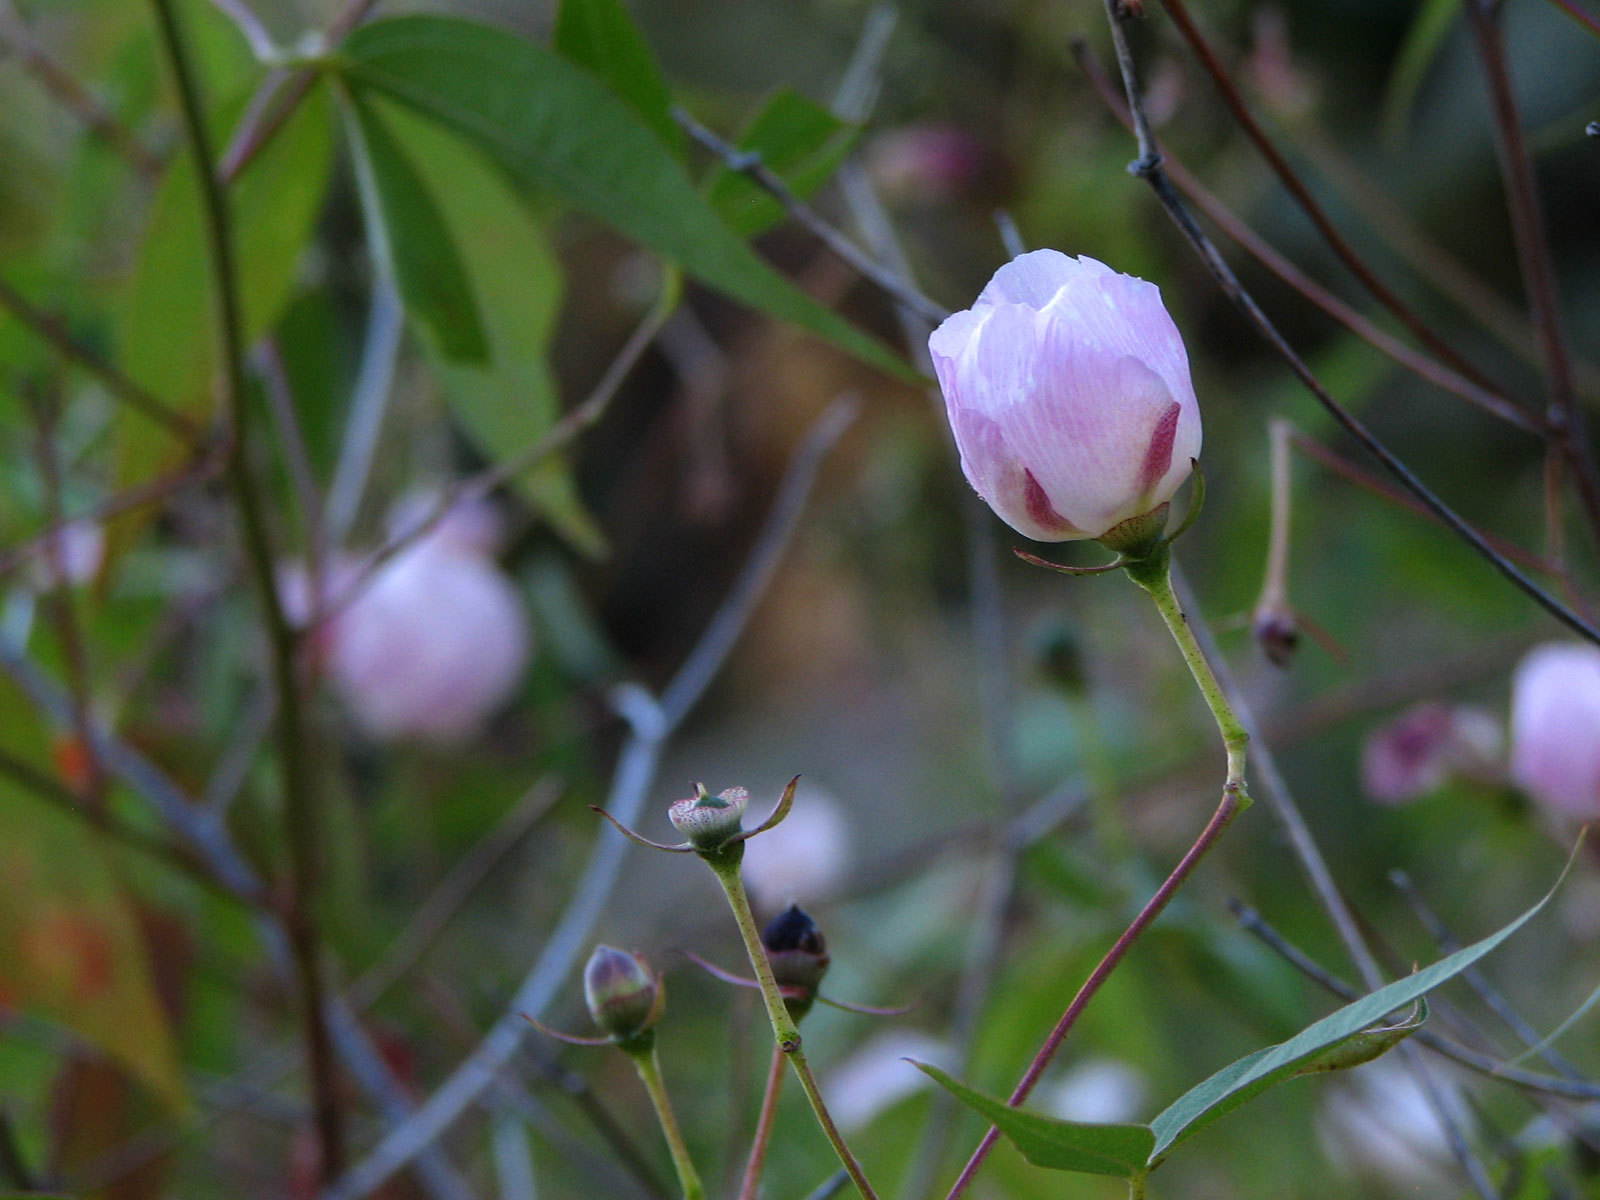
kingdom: Plantae
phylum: Tracheophyta
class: Magnoliopsida
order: Malvales
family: Malvaceae
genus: Gossypium
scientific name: Gossypium thurberi
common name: Desert cotton
